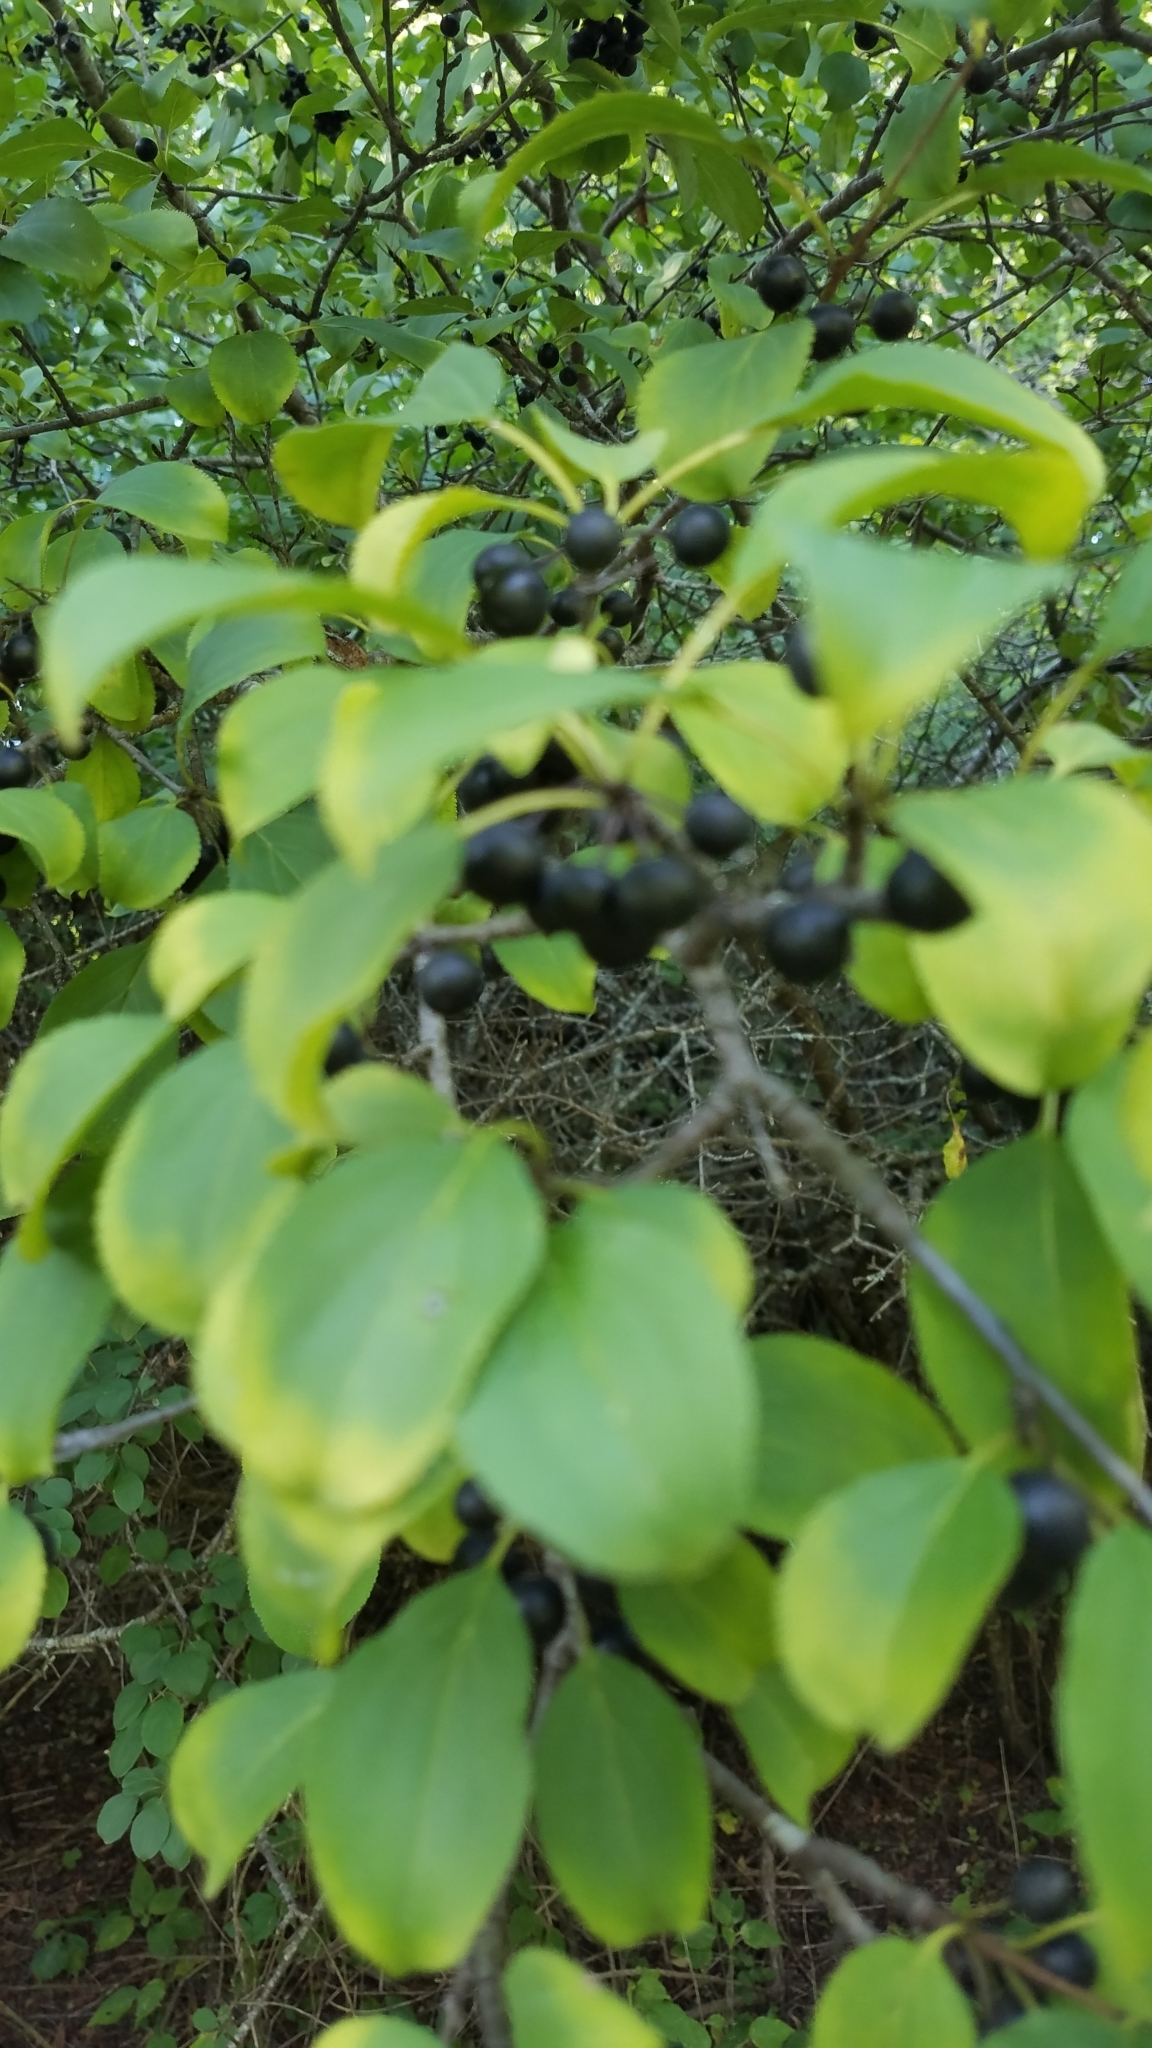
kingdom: Plantae
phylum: Tracheophyta
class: Magnoliopsida
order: Rosales
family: Rhamnaceae
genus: Rhamnus
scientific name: Rhamnus cathartica
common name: Common buckthorn
